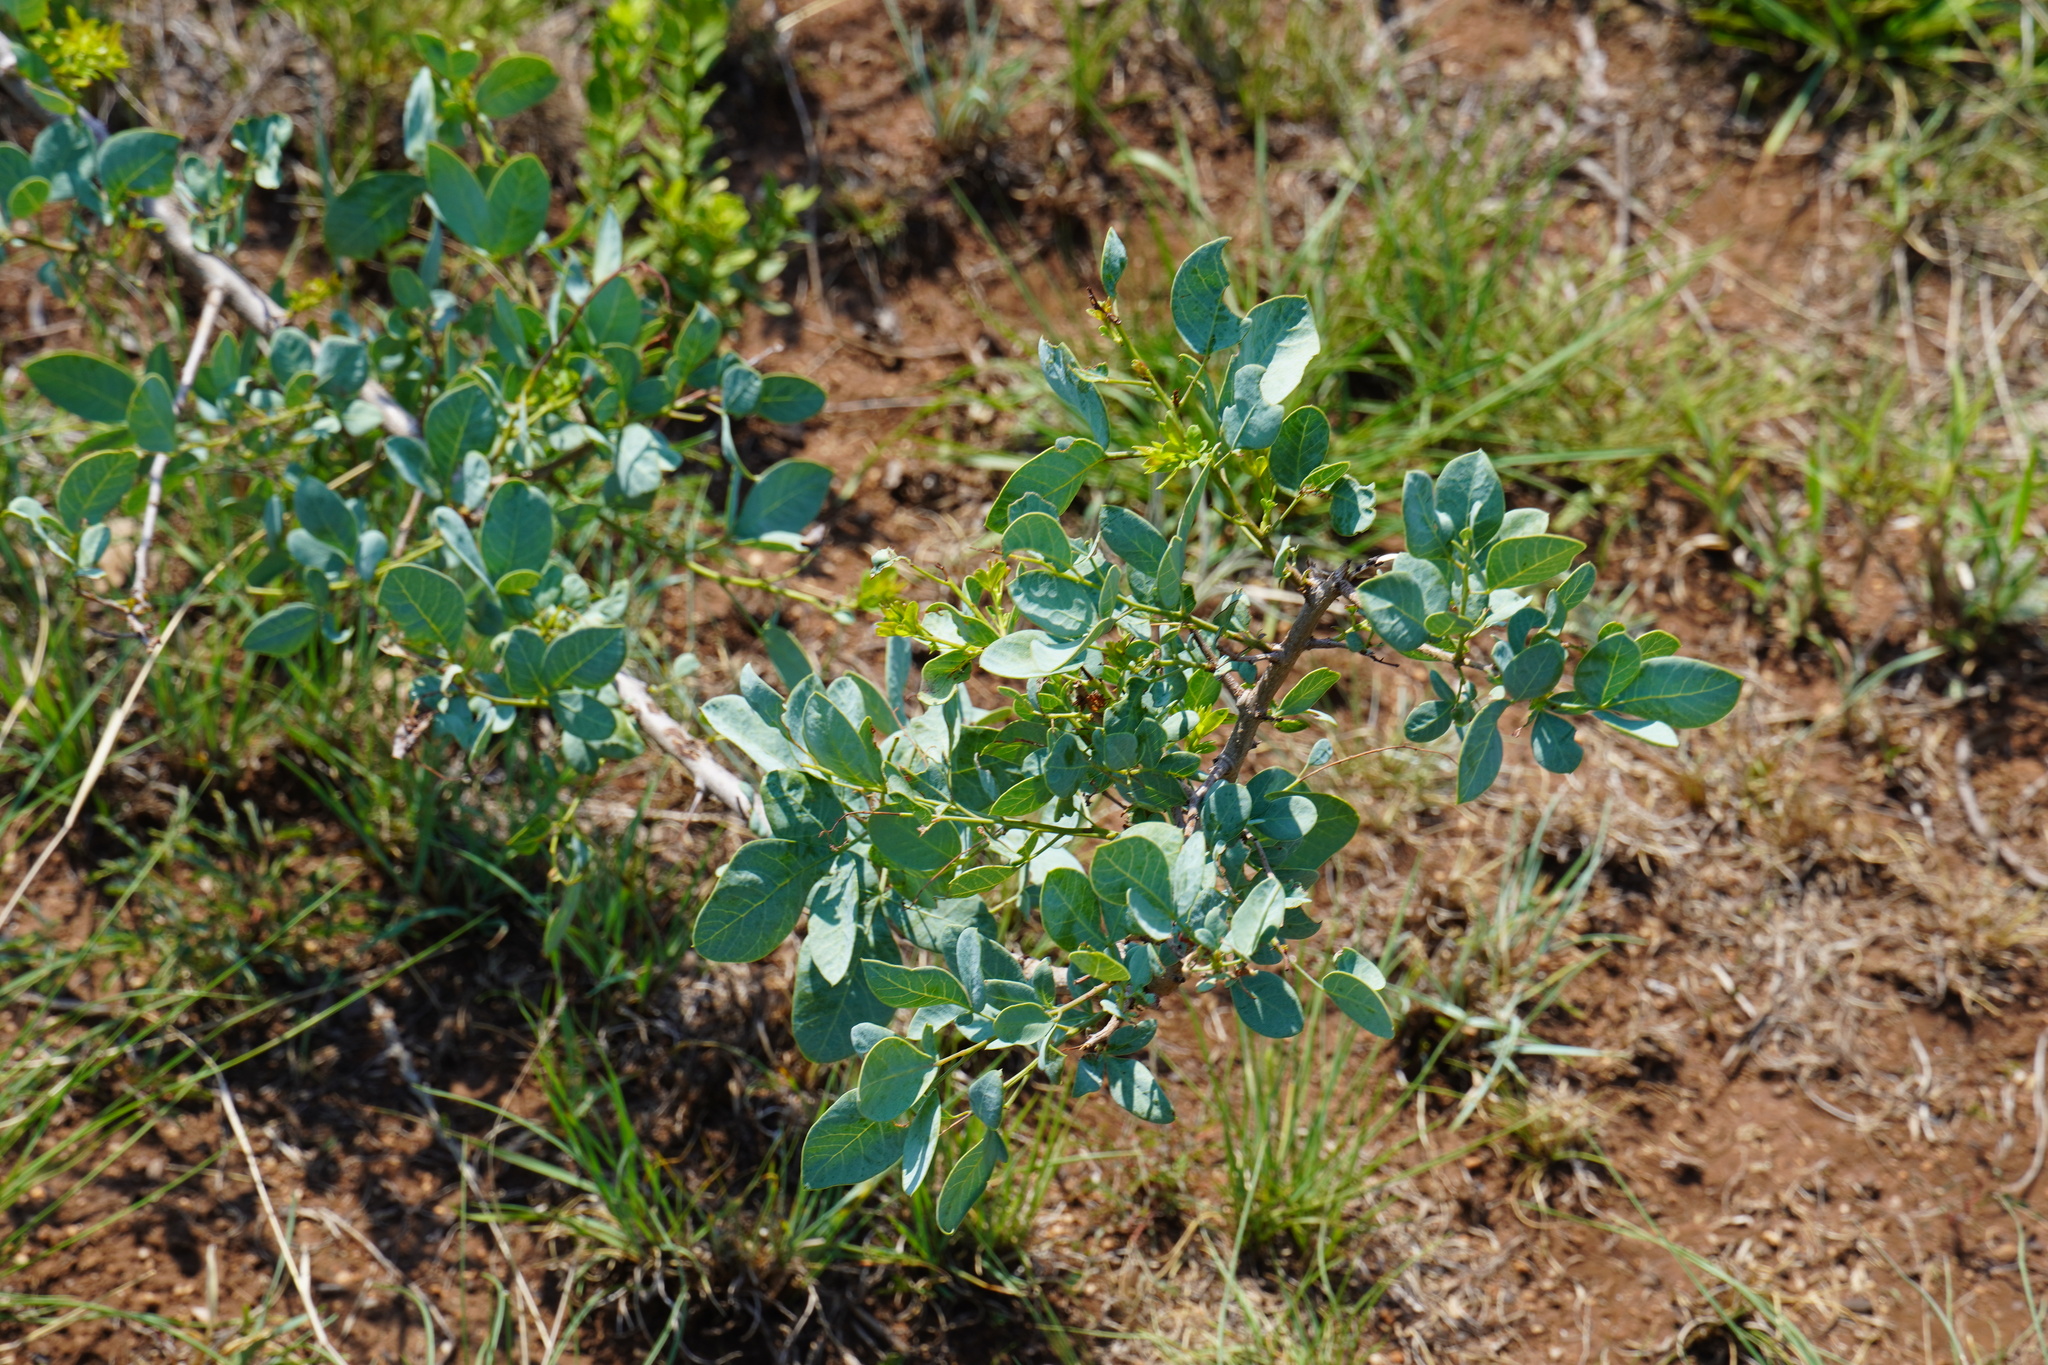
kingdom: Plantae
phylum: Tracheophyta
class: Magnoliopsida
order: Sapindales
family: Anacardiaceae
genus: Searsia
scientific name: Searsia zeyheri
